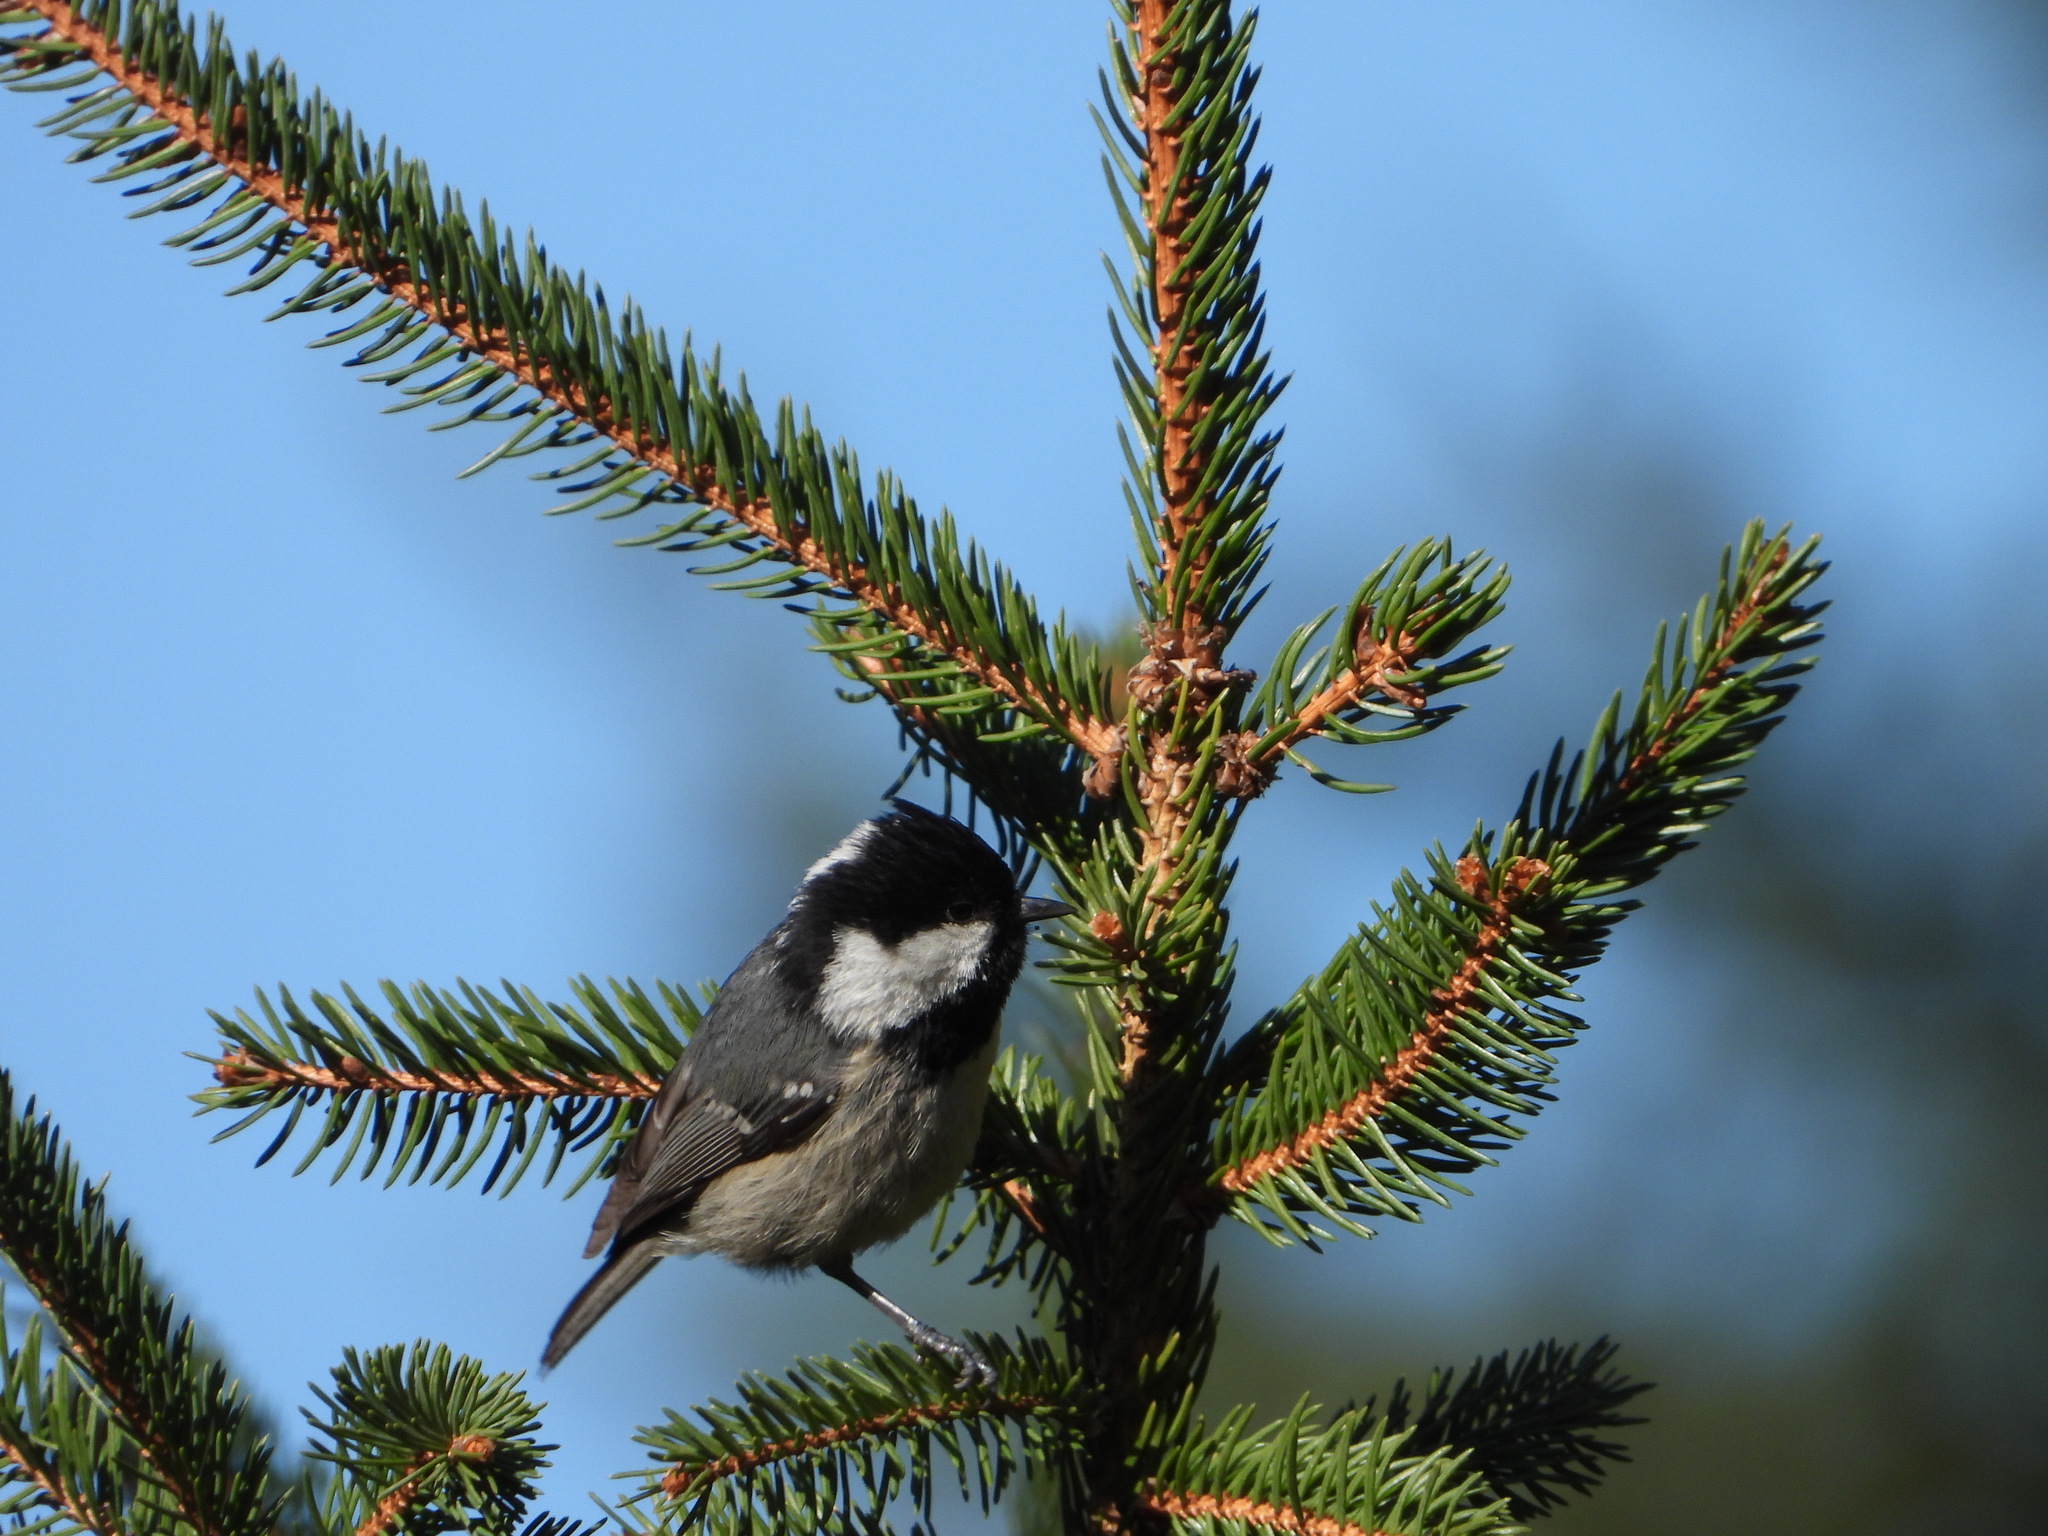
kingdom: Animalia
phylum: Chordata
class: Aves
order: Passeriformes
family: Paridae
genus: Periparus
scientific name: Periparus ater
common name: Coal tit
